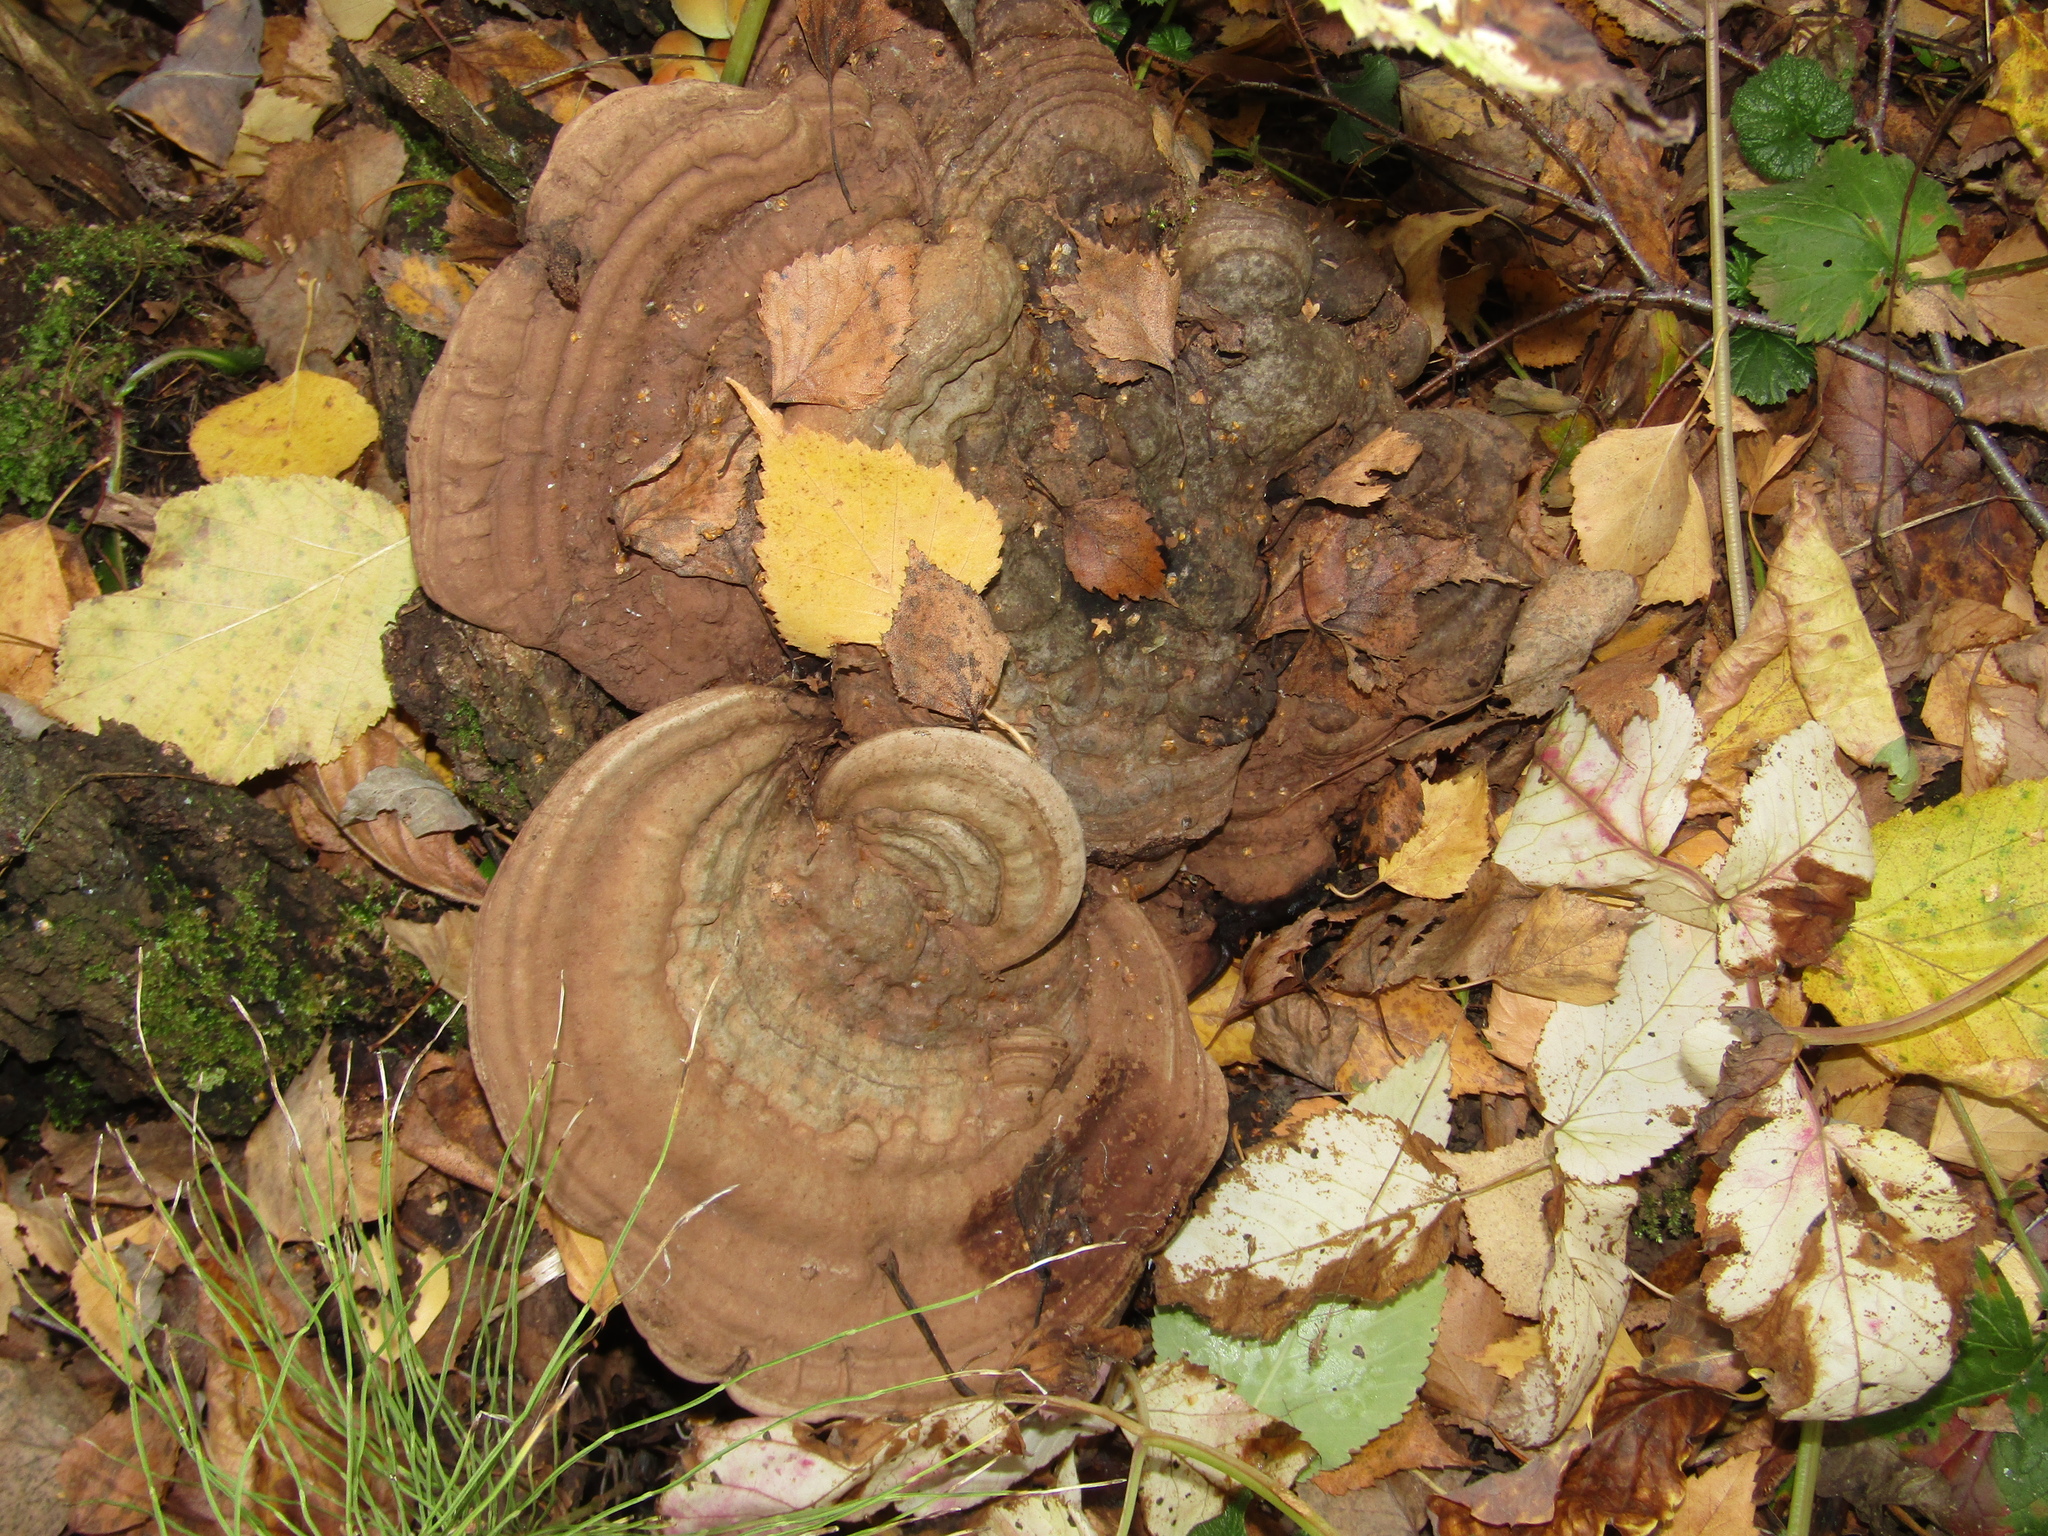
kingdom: Fungi
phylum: Basidiomycota
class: Agaricomycetes
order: Polyporales
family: Polyporaceae
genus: Ganoderma
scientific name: Ganoderma applanatum
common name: Artist's bracket
